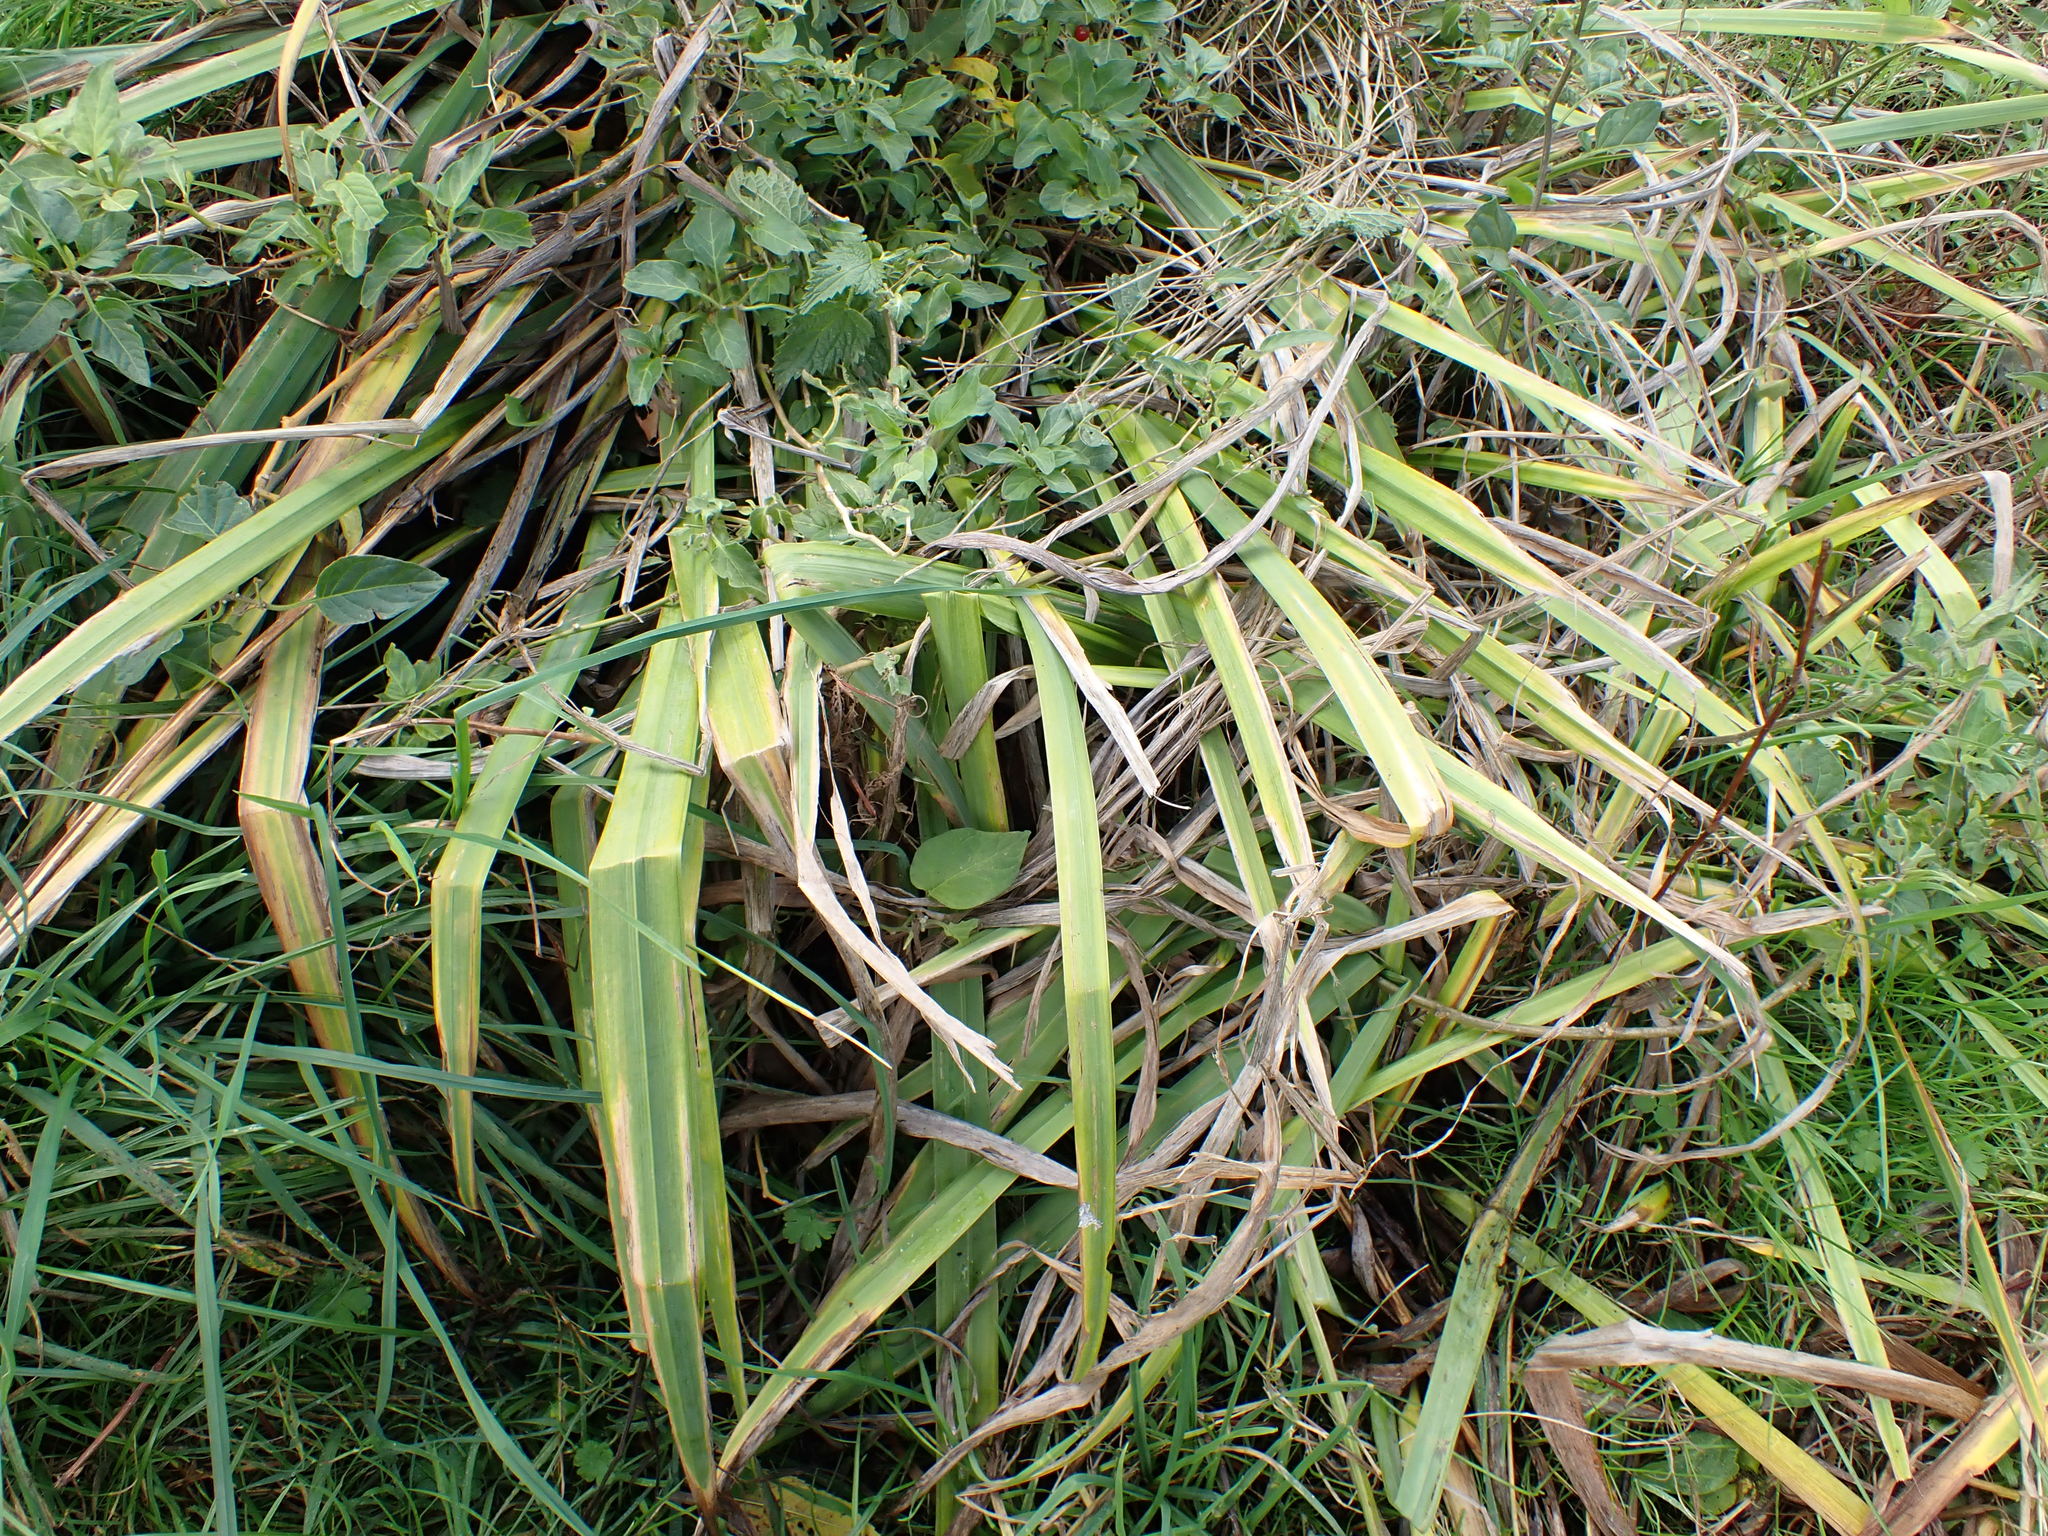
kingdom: Plantae
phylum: Tracheophyta
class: Liliopsida
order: Asparagales
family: Iridaceae
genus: Iris
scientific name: Iris pseudacorus
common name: Yellow flag
